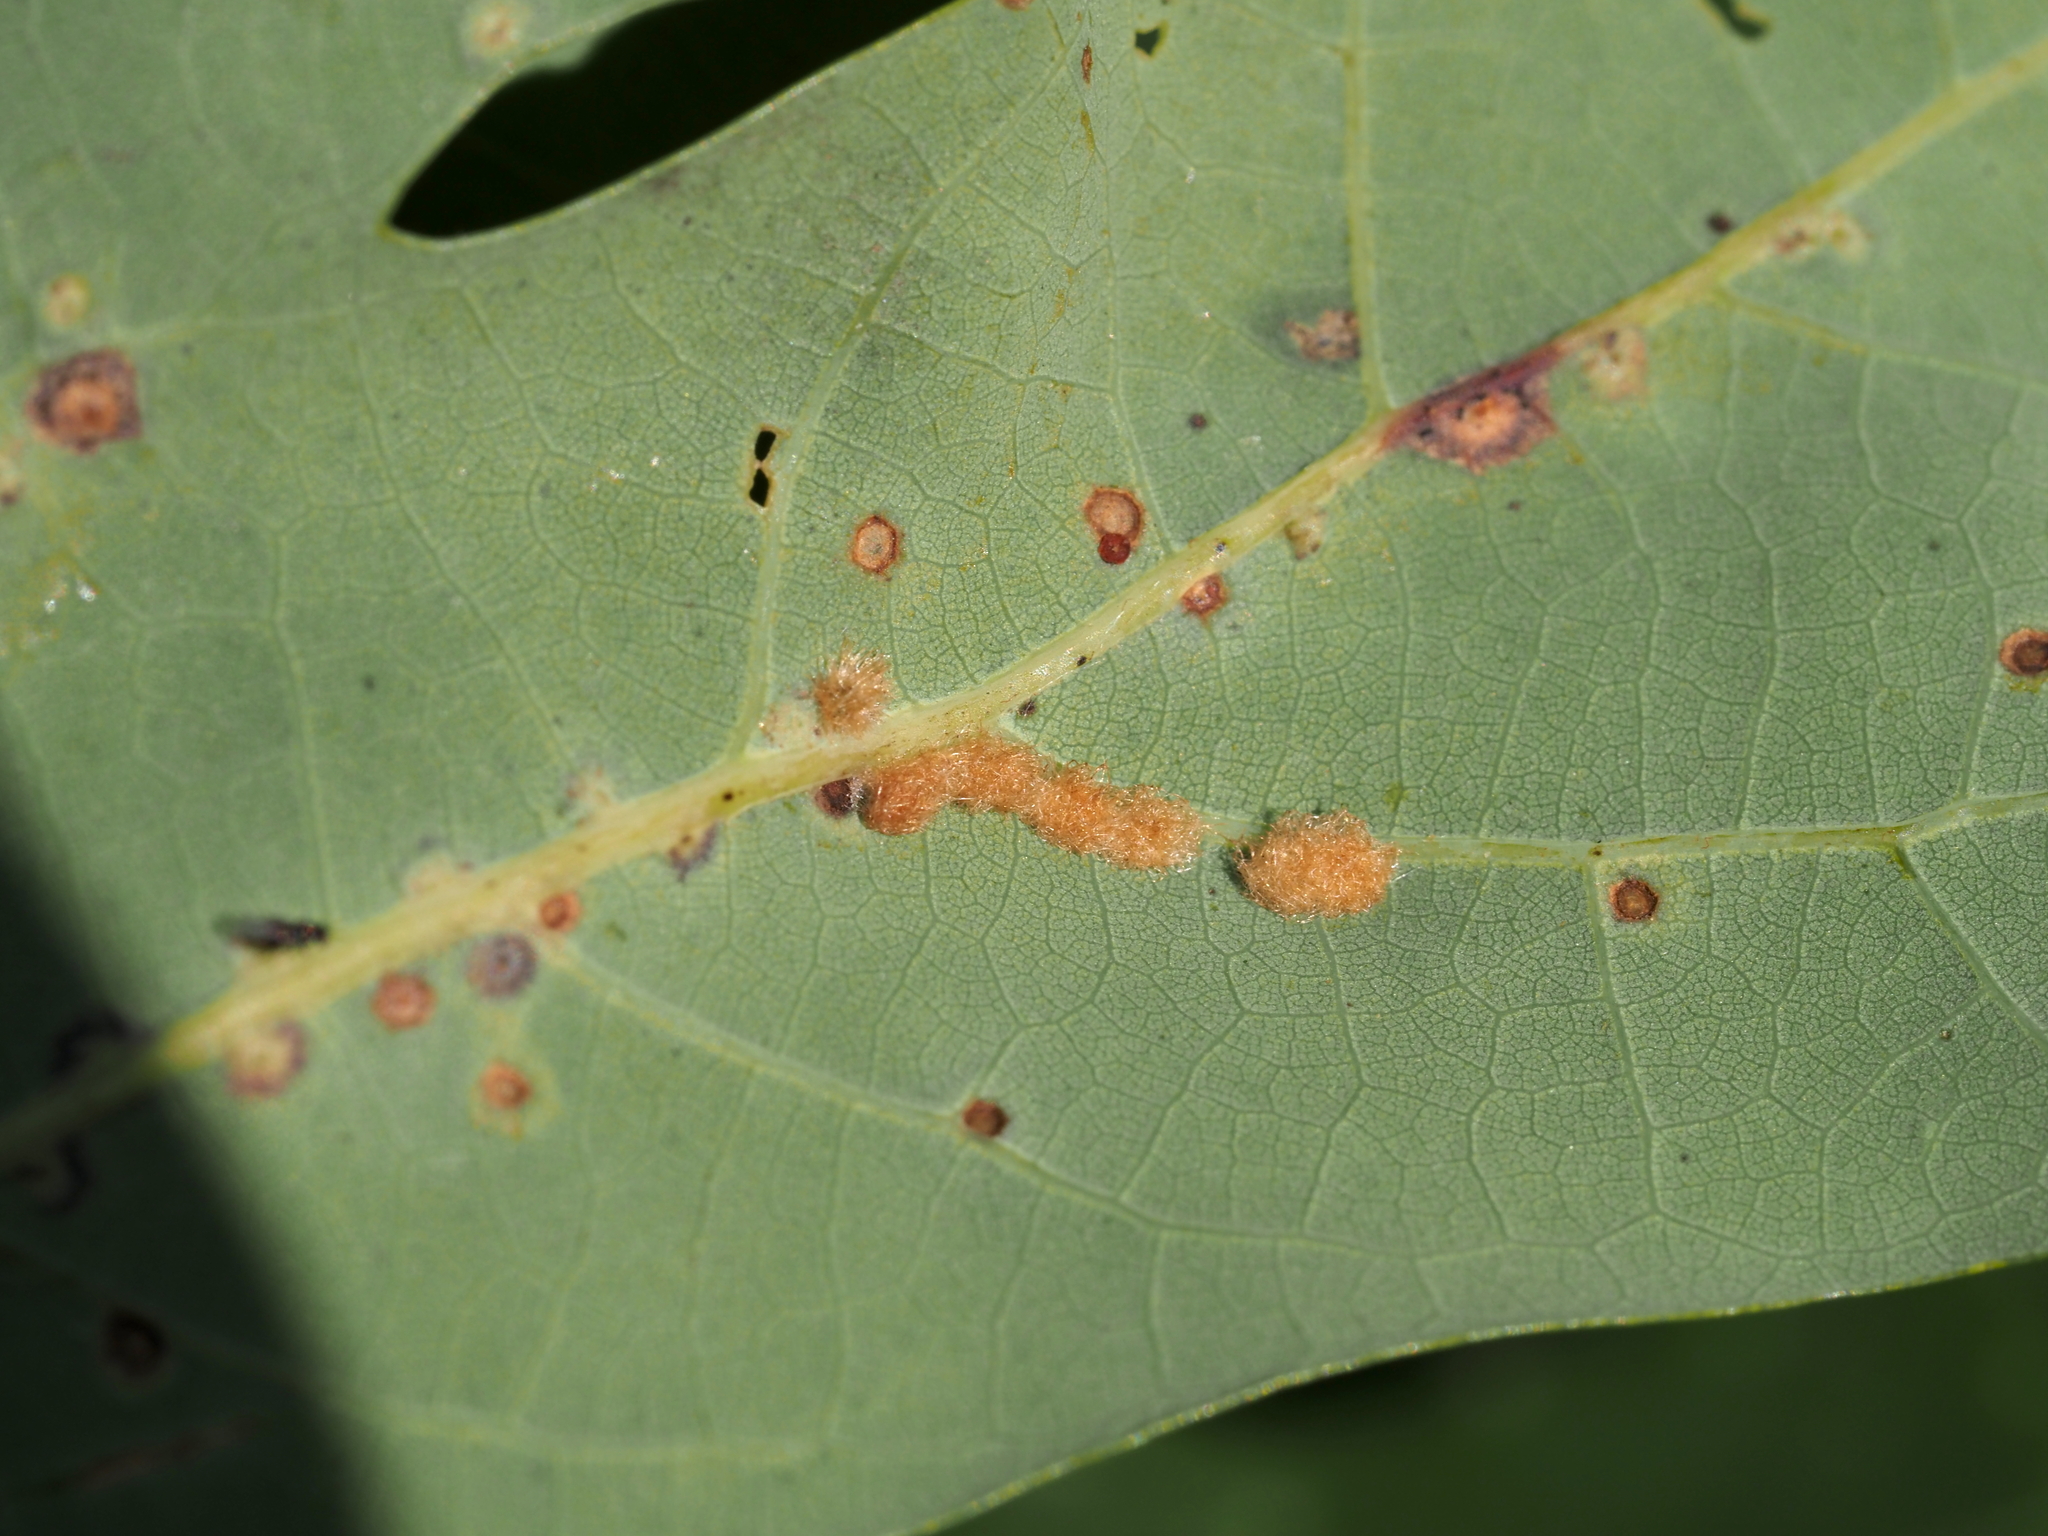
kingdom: Animalia
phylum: Arthropoda
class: Insecta
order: Hymenoptera
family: Cynipidae
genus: Neuroterus
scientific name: Neuroterus quercusverrucarum
